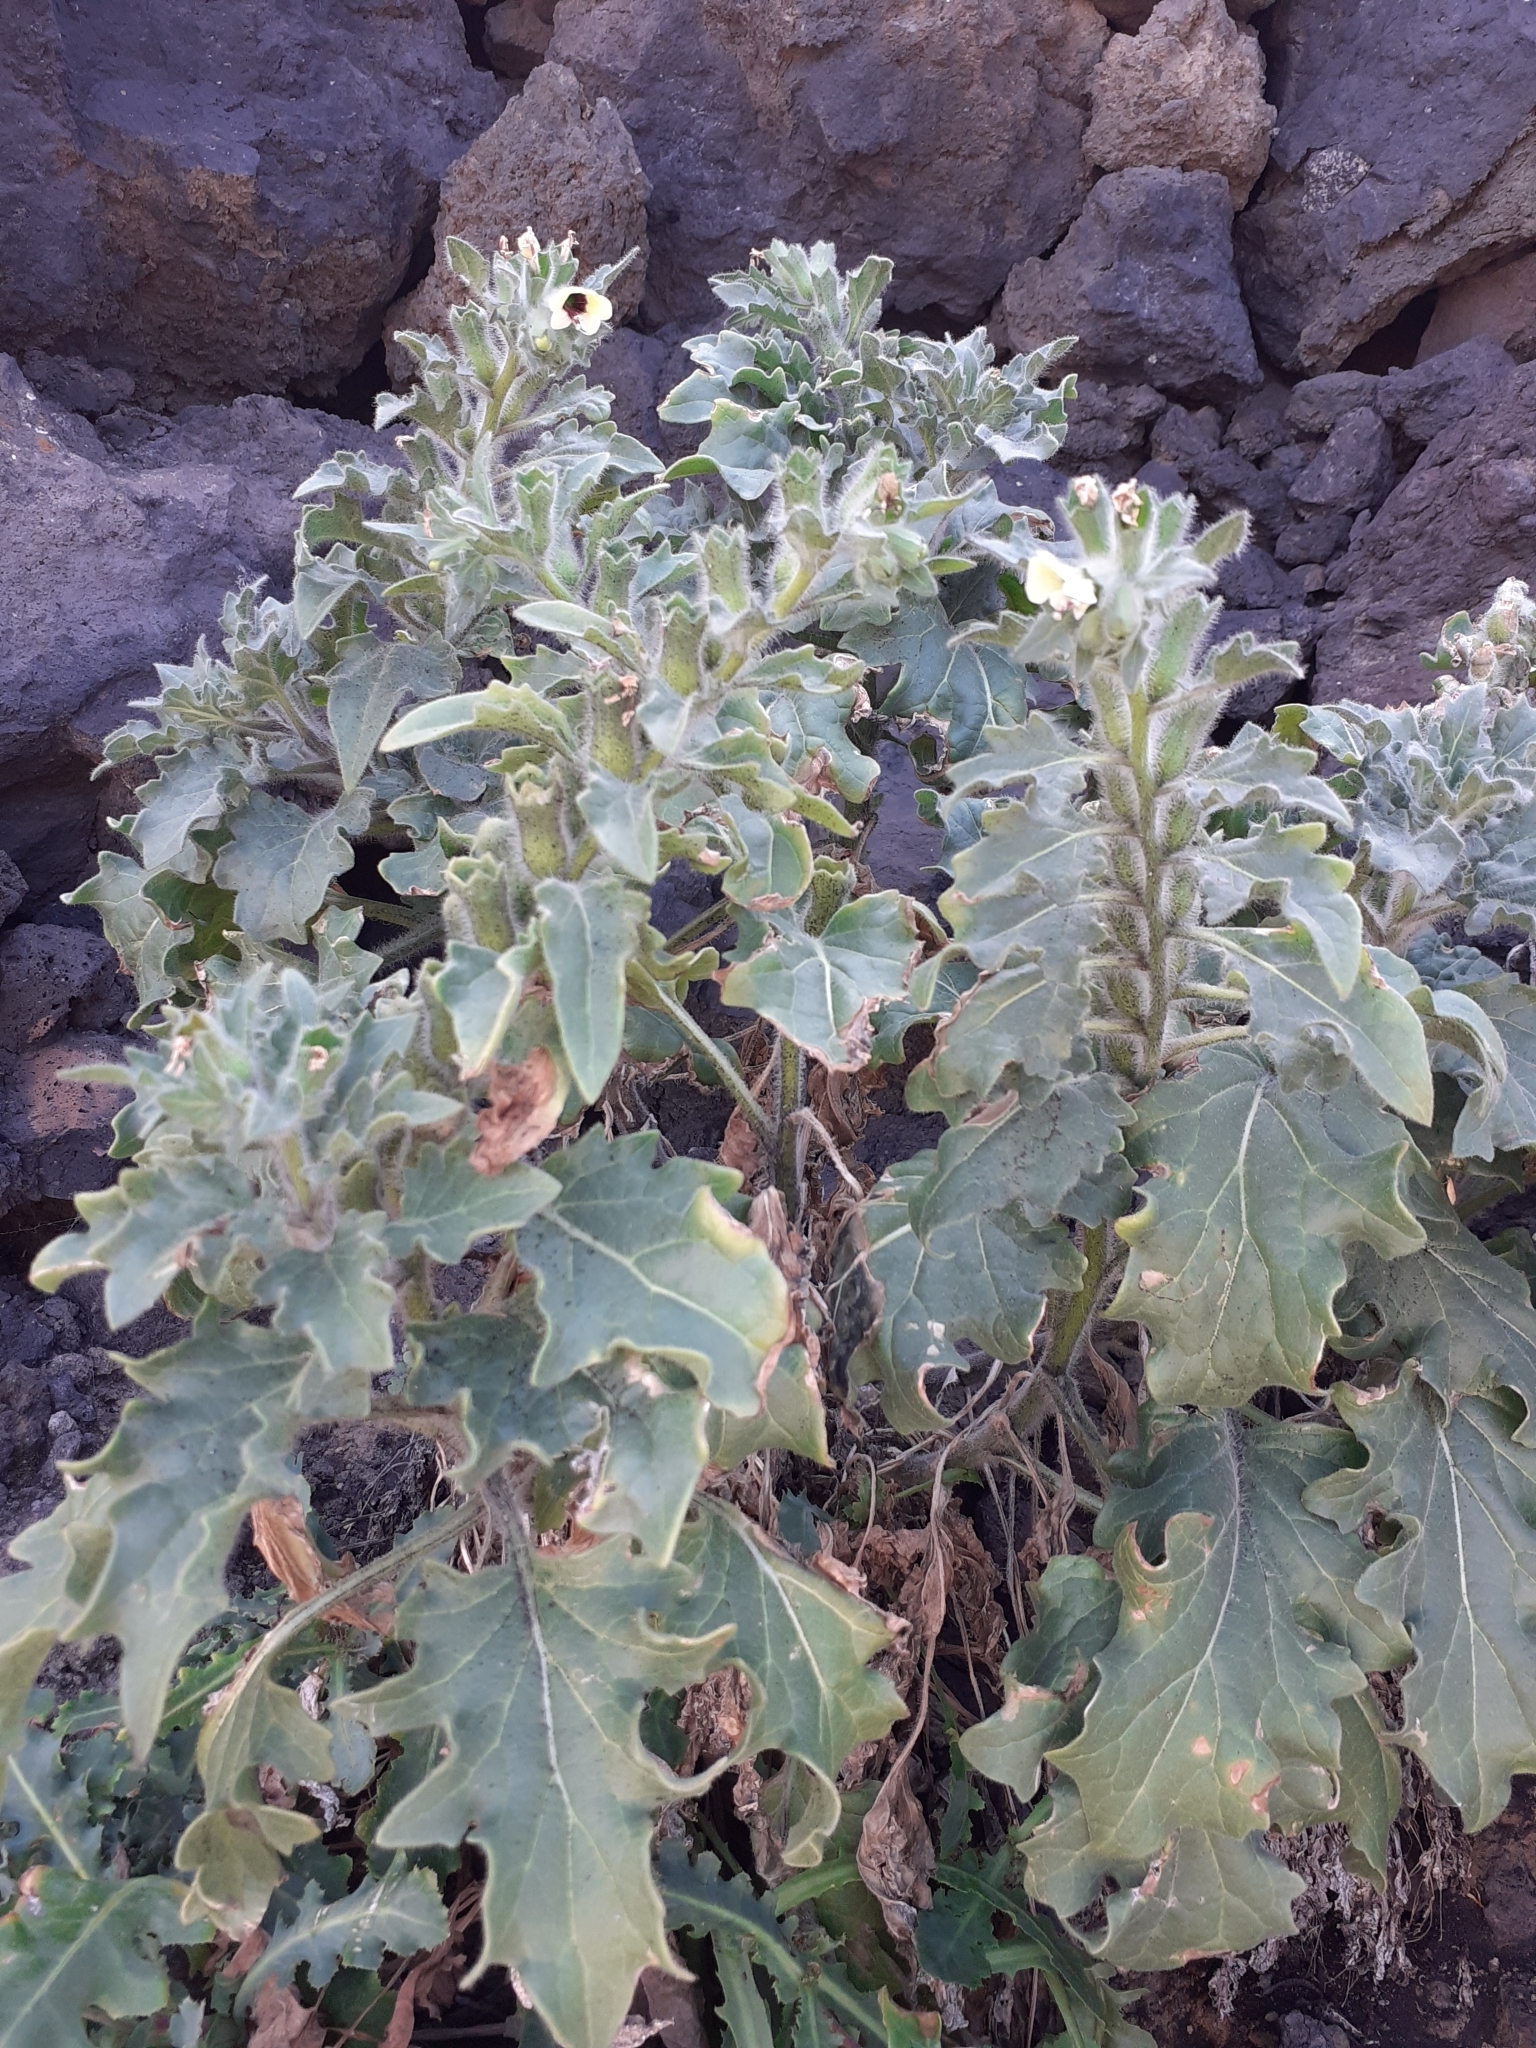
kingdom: Plantae
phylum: Tracheophyta
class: Magnoliopsida
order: Solanales
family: Solanaceae
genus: Hyoscyamus
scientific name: Hyoscyamus albus
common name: White henbane
